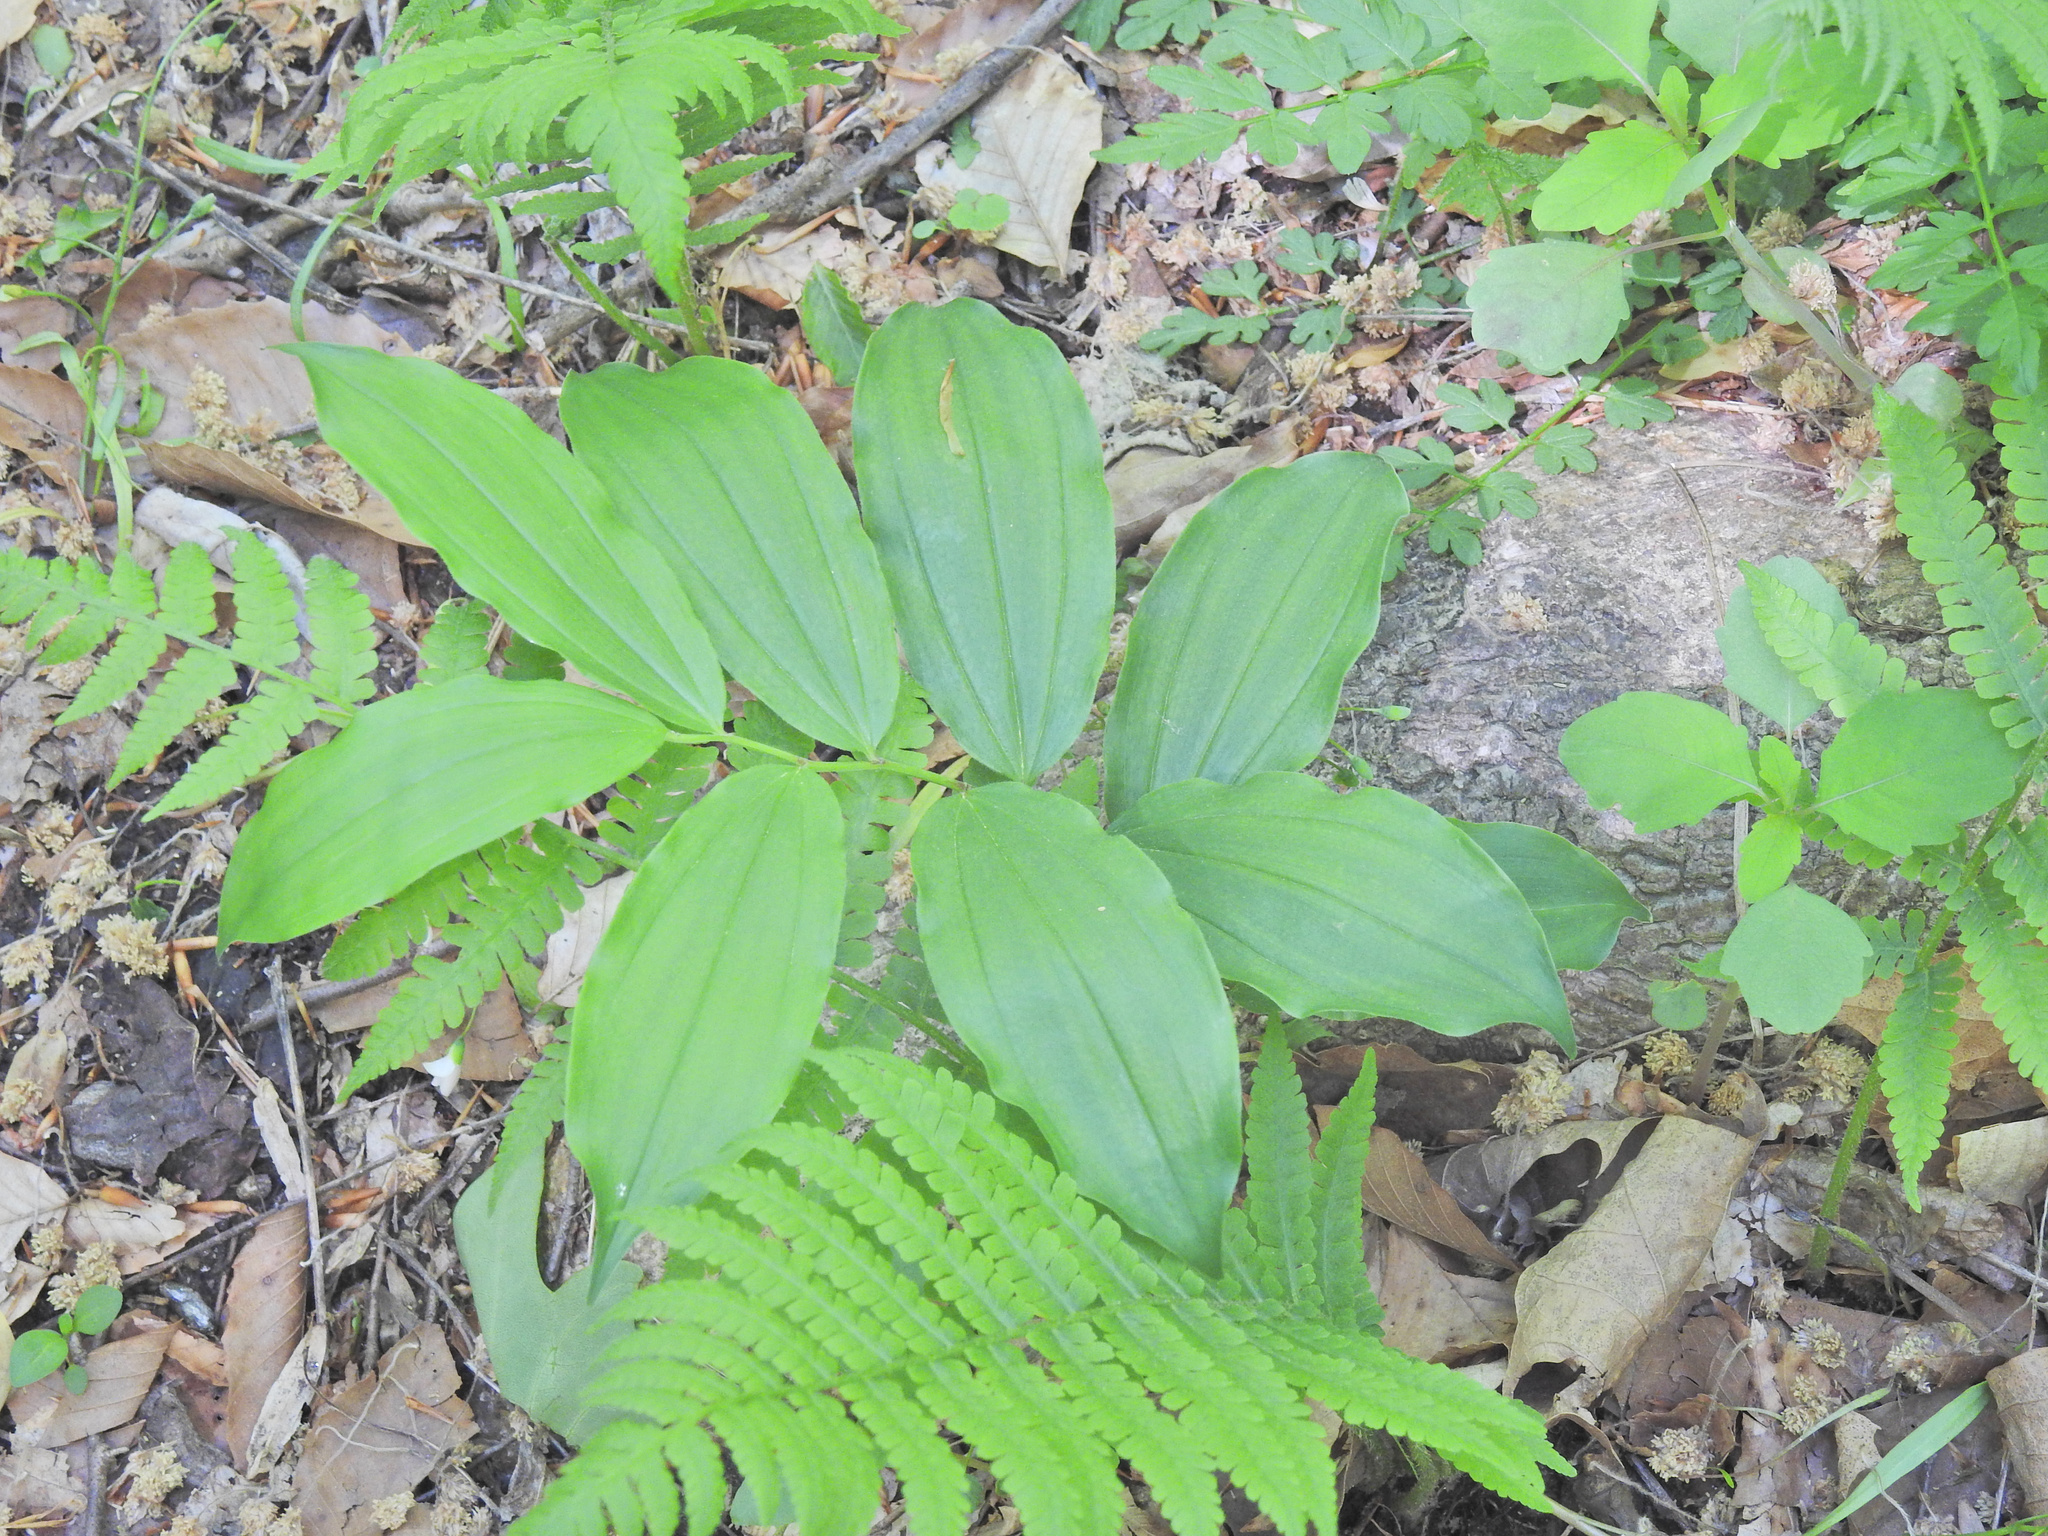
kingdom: Plantae
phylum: Tracheophyta
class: Liliopsida
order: Asparagales
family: Asparagaceae
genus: Maianthemum
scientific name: Maianthemum racemosum
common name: False spikenard
